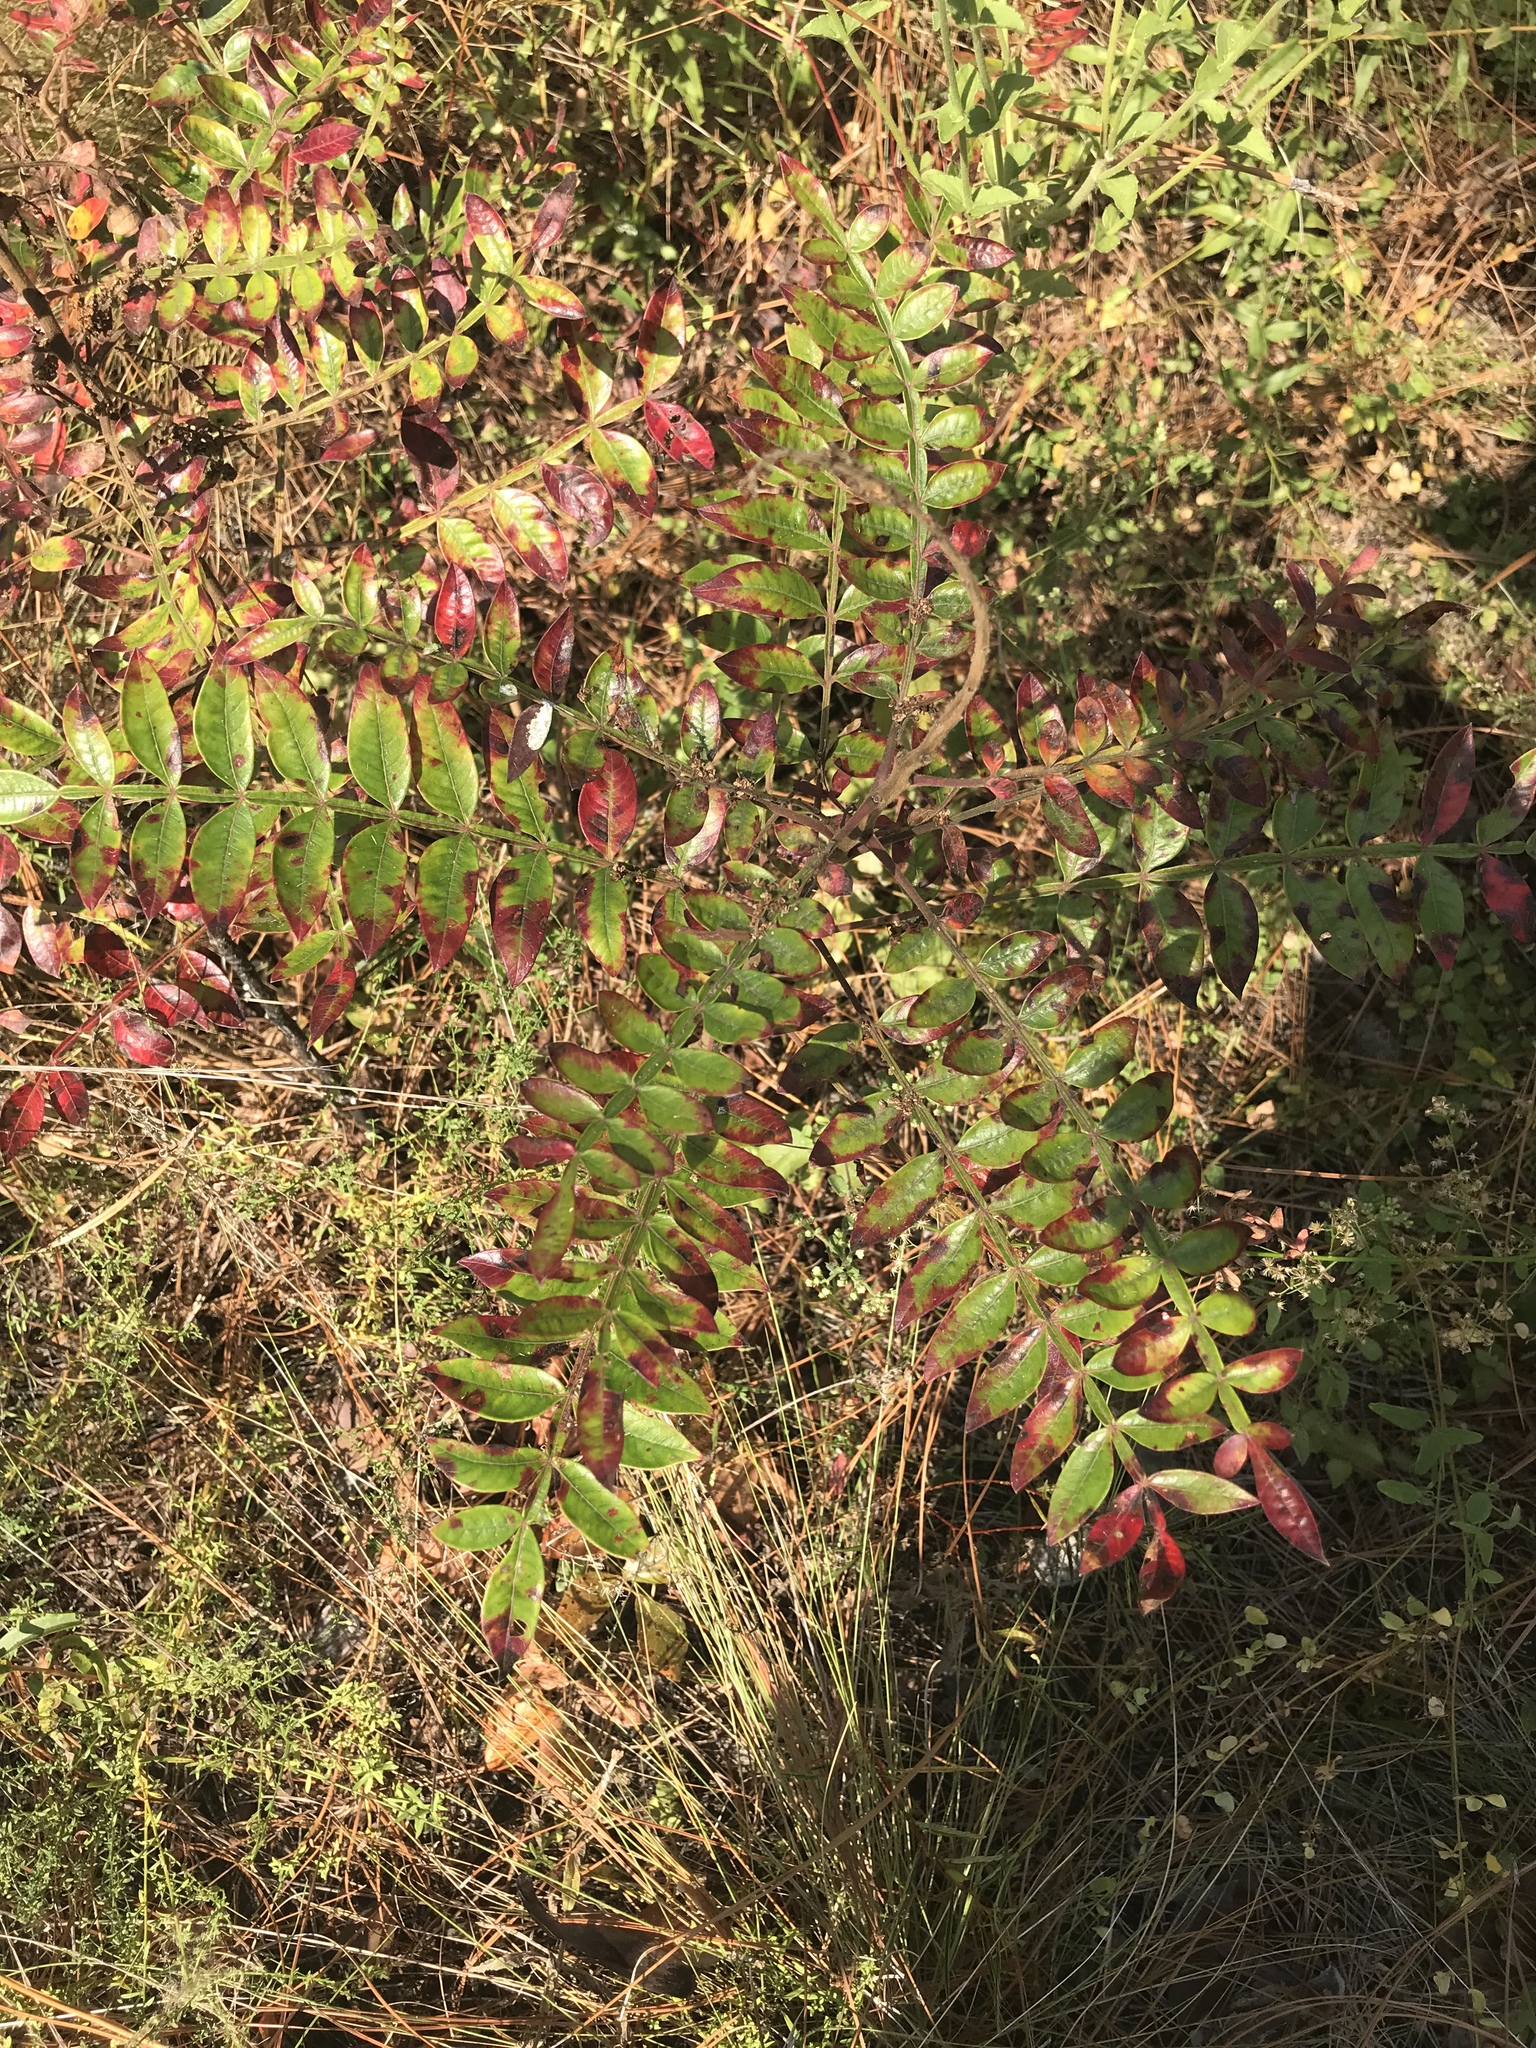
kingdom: Plantae
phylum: Tracheophyta
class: Magnoliopsida
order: Sapindales
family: Anacardiaceae
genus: Rhus
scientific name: Rhus copallina
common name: Shining sumac
